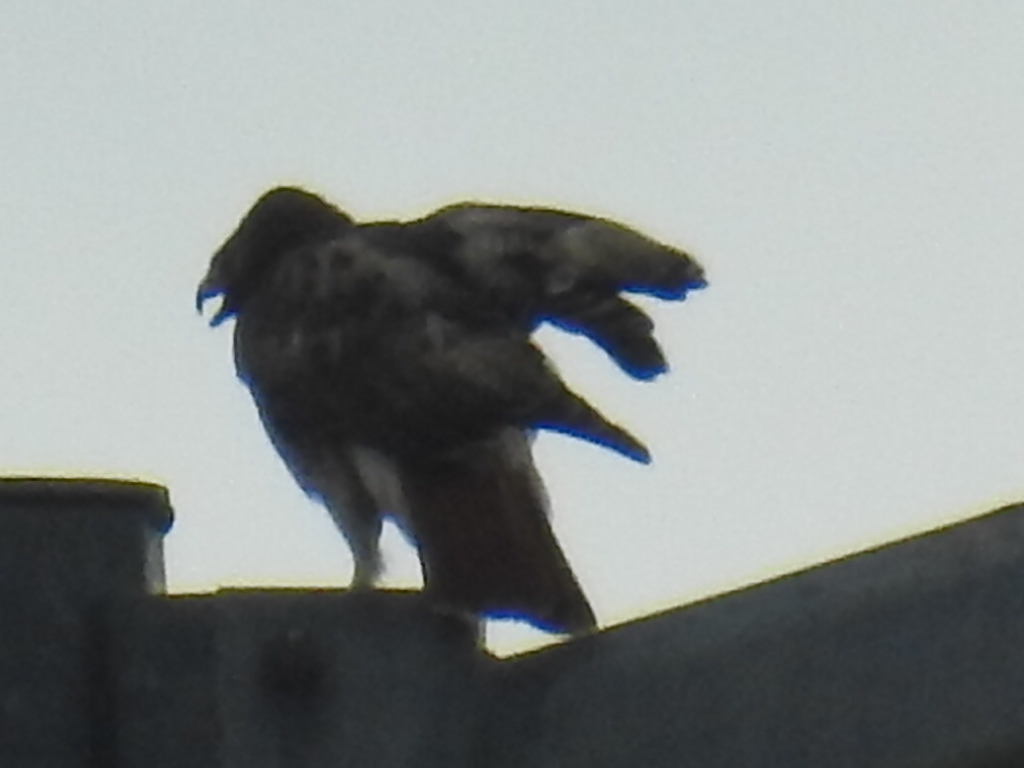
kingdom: Animalia
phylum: Chordata
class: Aves
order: Accipitriformes
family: Accipitridae
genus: Buteo
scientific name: Buteo jamaicensis
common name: Red-tailed hawk
